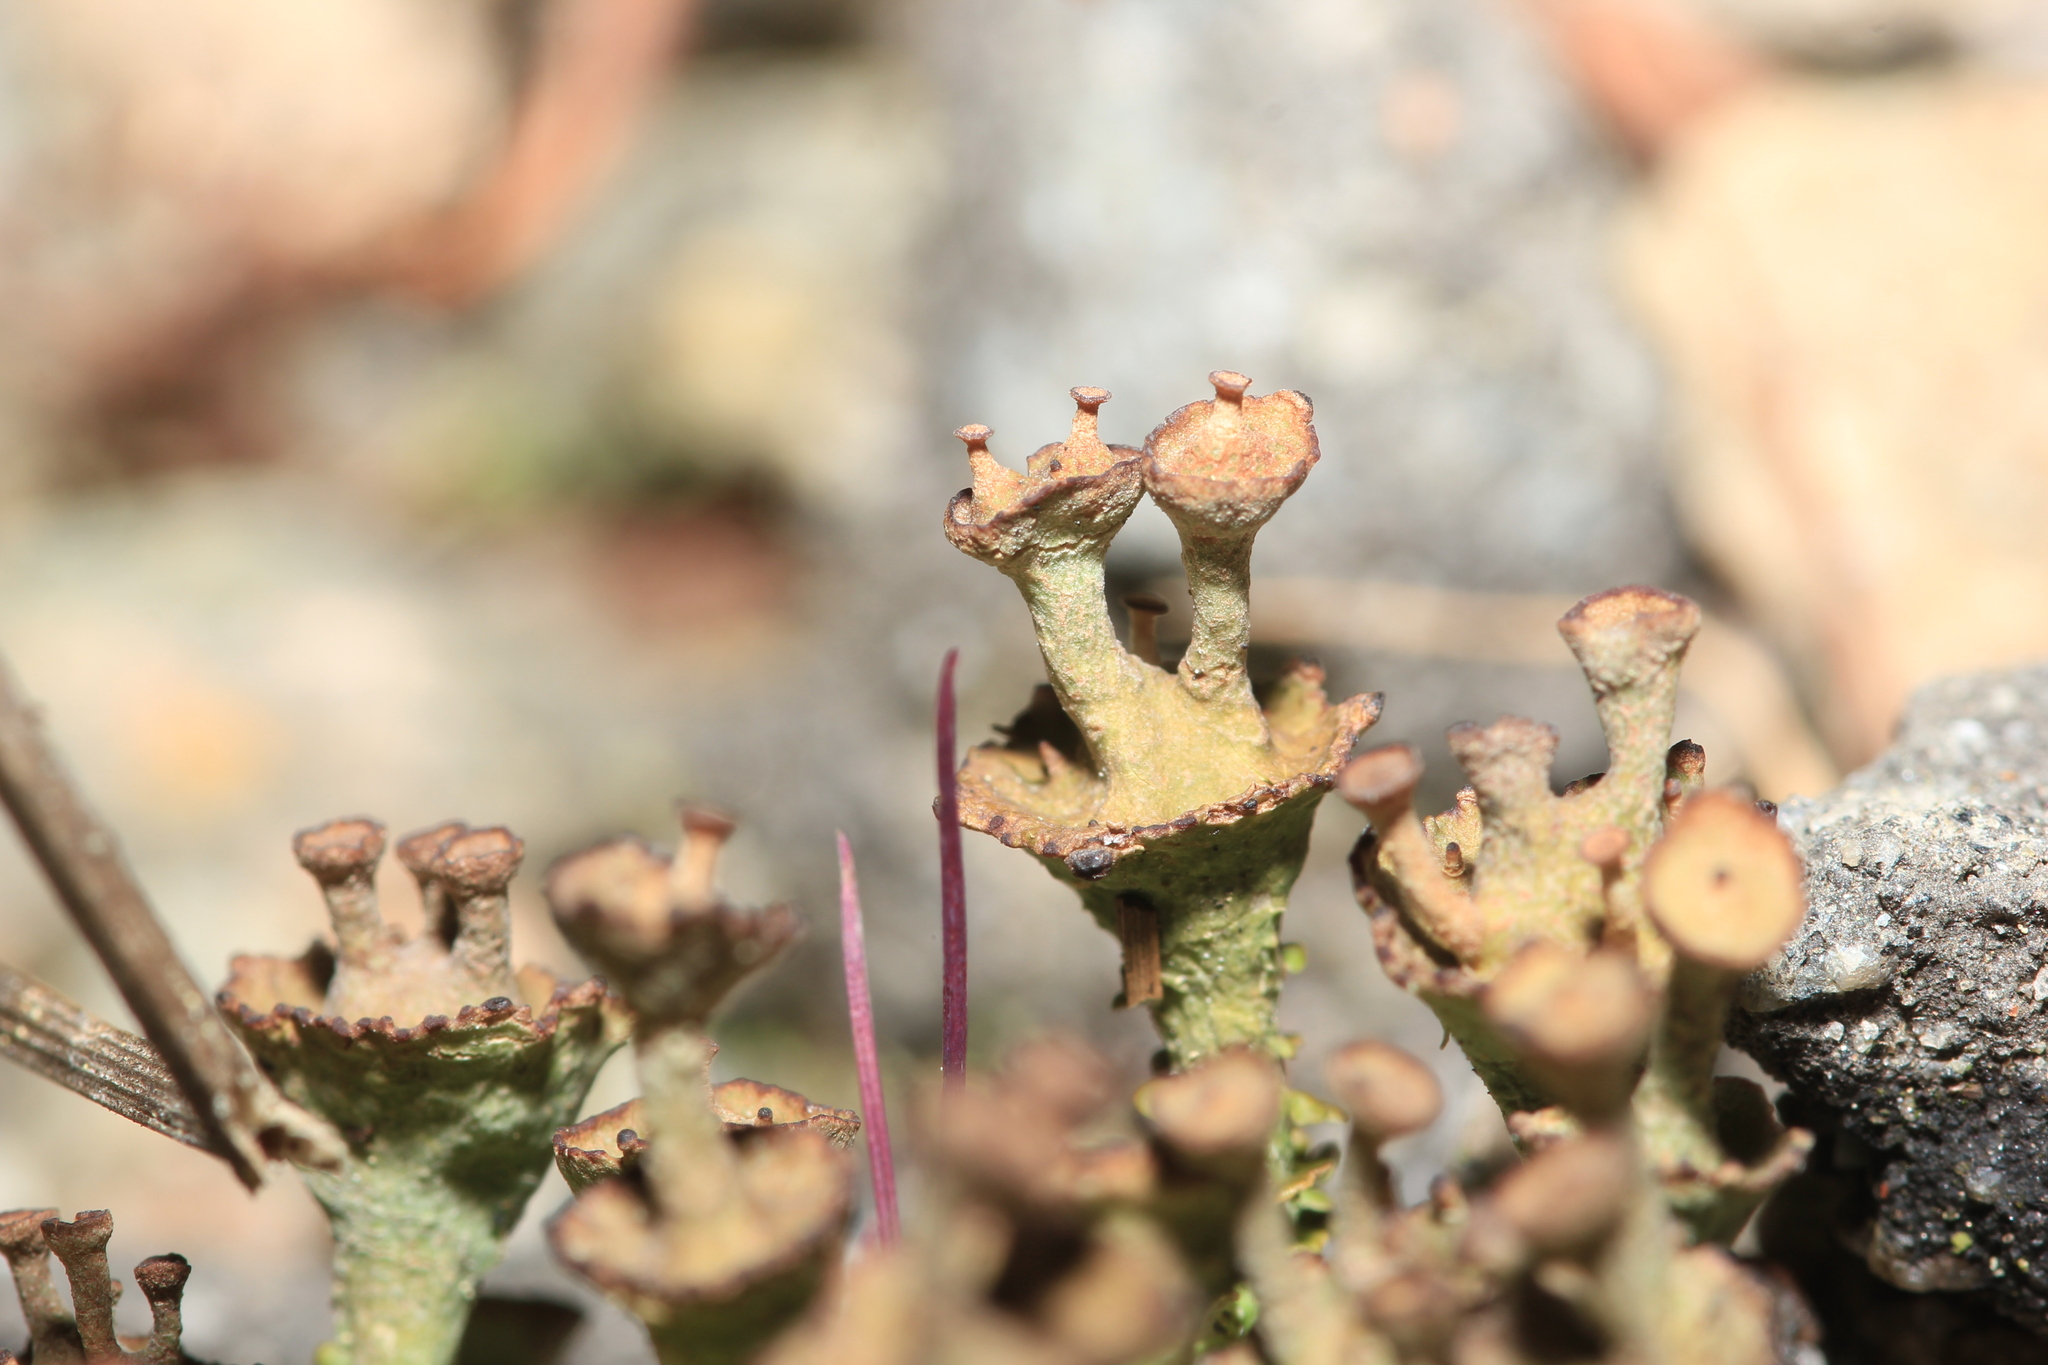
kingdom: Fungi
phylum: Ascomycota
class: Lecanoromycetes
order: Lecanorales
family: Cladoniaceae
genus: Cladonia
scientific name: Cladonia cervicornis
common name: Browned pixie-cup lichen
